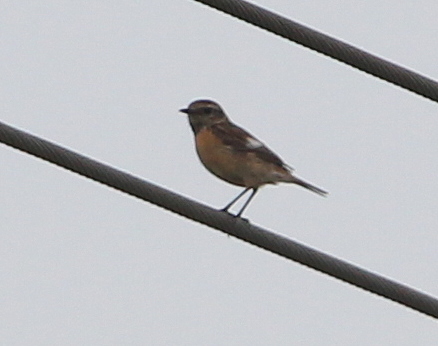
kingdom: Animalia
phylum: Chordata
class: Aves
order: Passeriformes
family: Muscicapidae
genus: Saxicola
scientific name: Saxicola rubicola
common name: European stonechat
